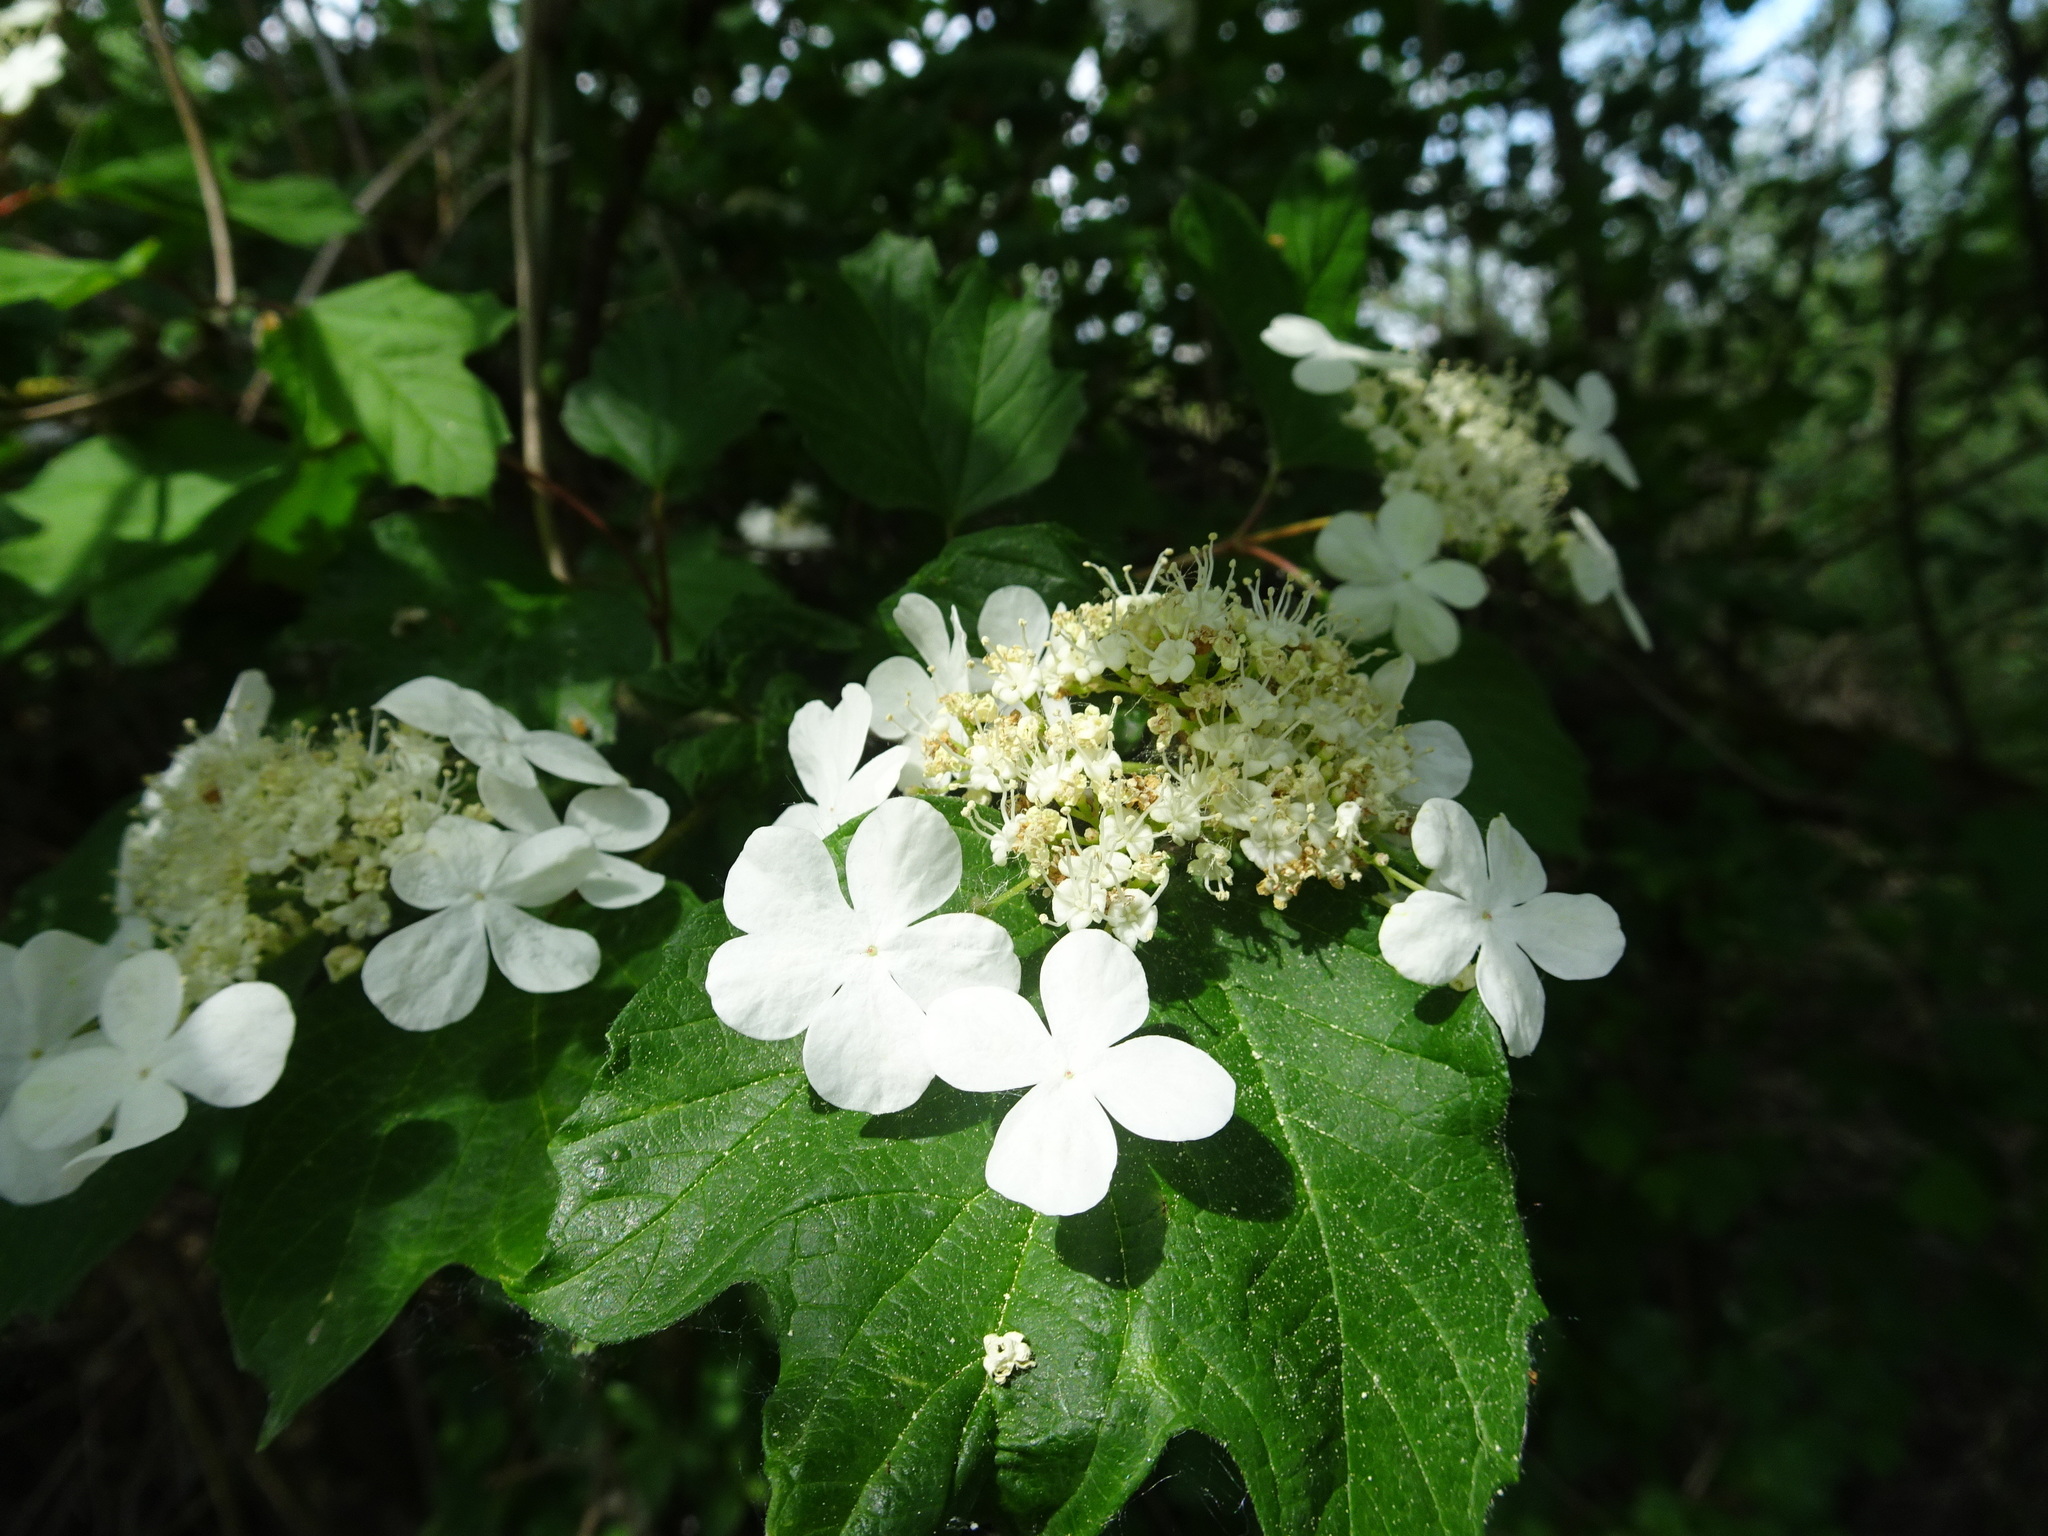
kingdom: Plantae
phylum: Tracheophyta
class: Magnoliopsida
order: Dipsacales
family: Viburnaceae
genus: Viburnum
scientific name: Viburnum opulus
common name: Guelder-rose
